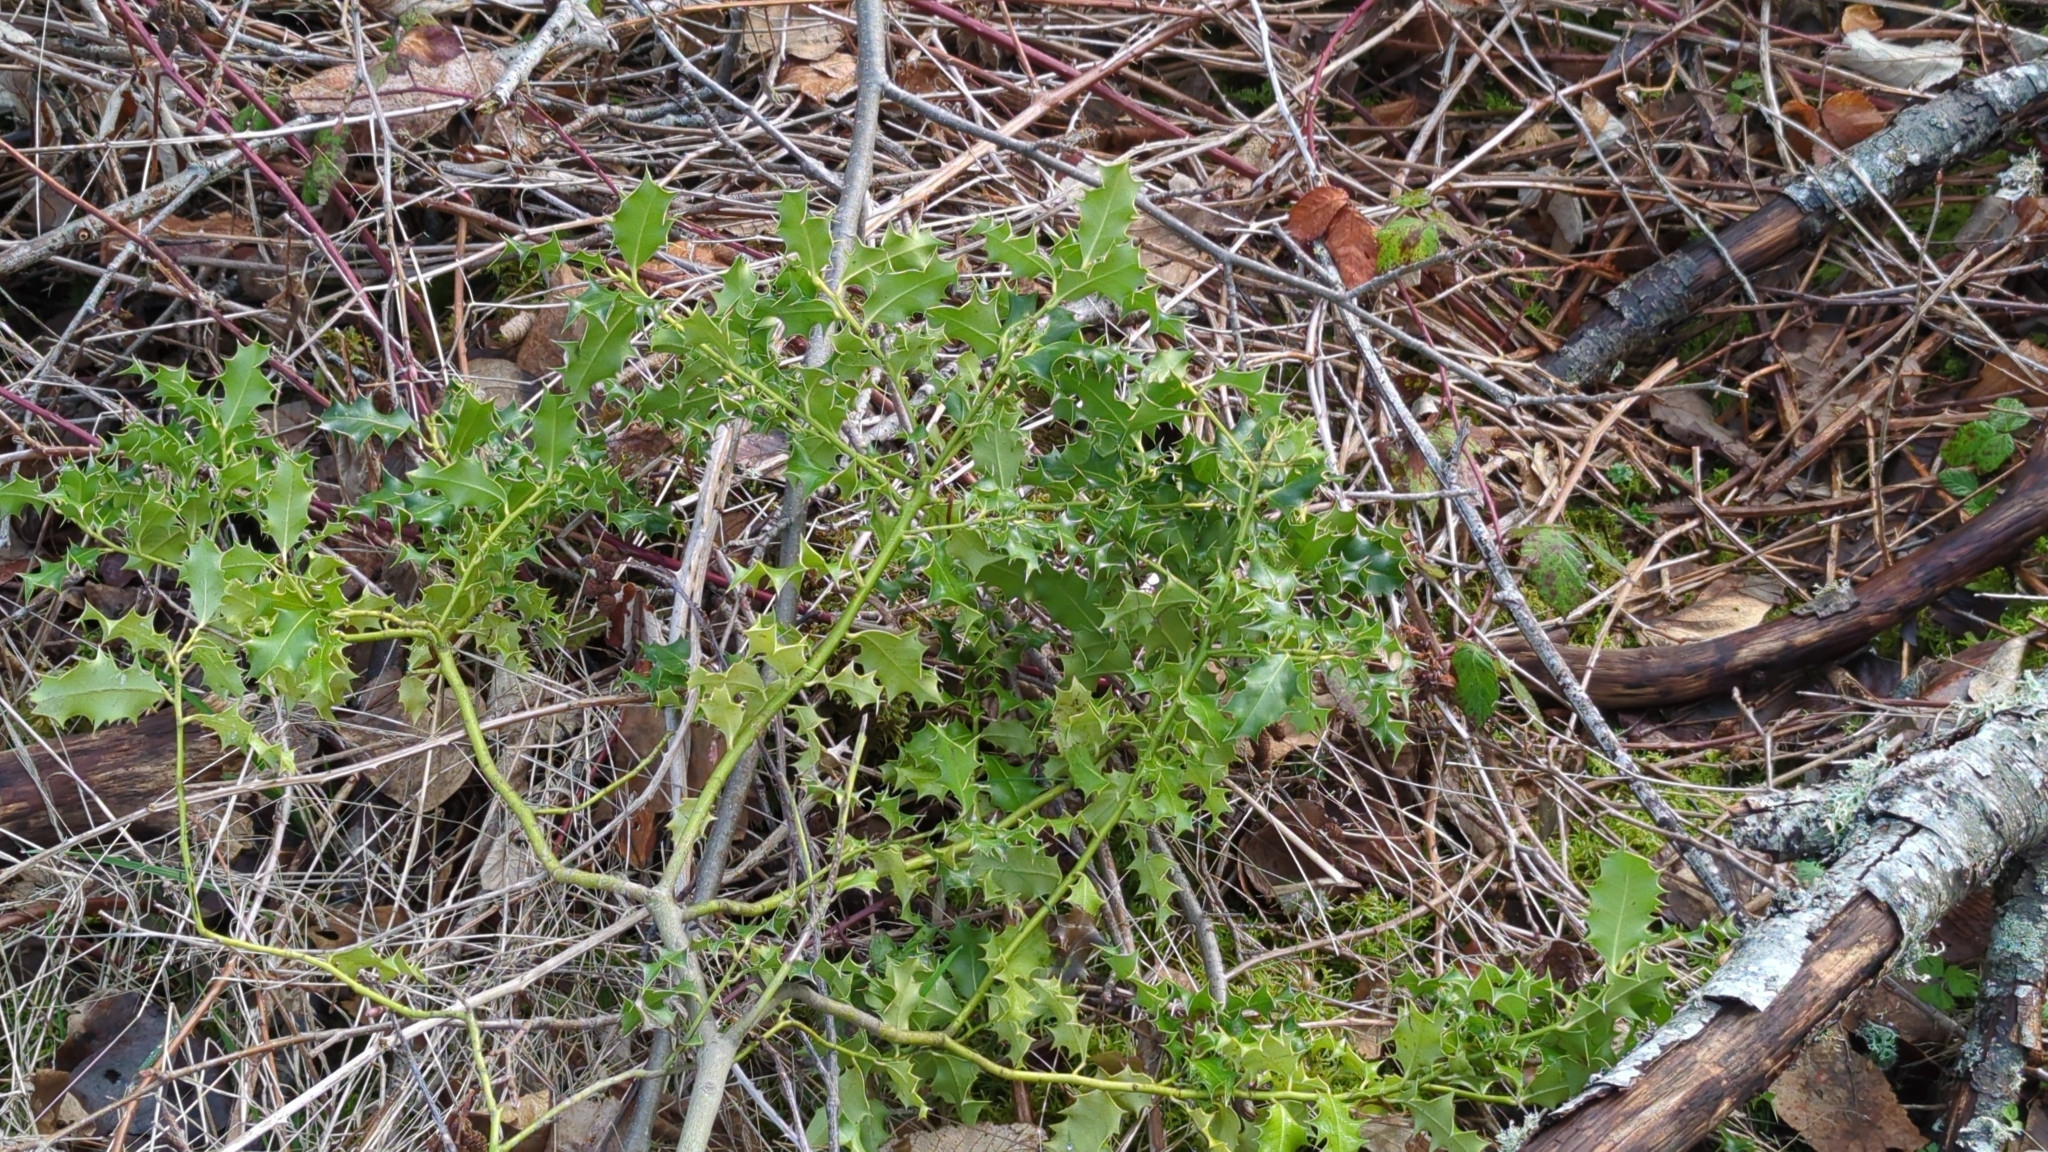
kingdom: Plantae
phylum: Tracheophyta
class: Magnoliopsida
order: Aquifoliales
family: Aquifoliaceae
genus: Ilex
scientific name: Ilex aquifolium
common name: English holly
